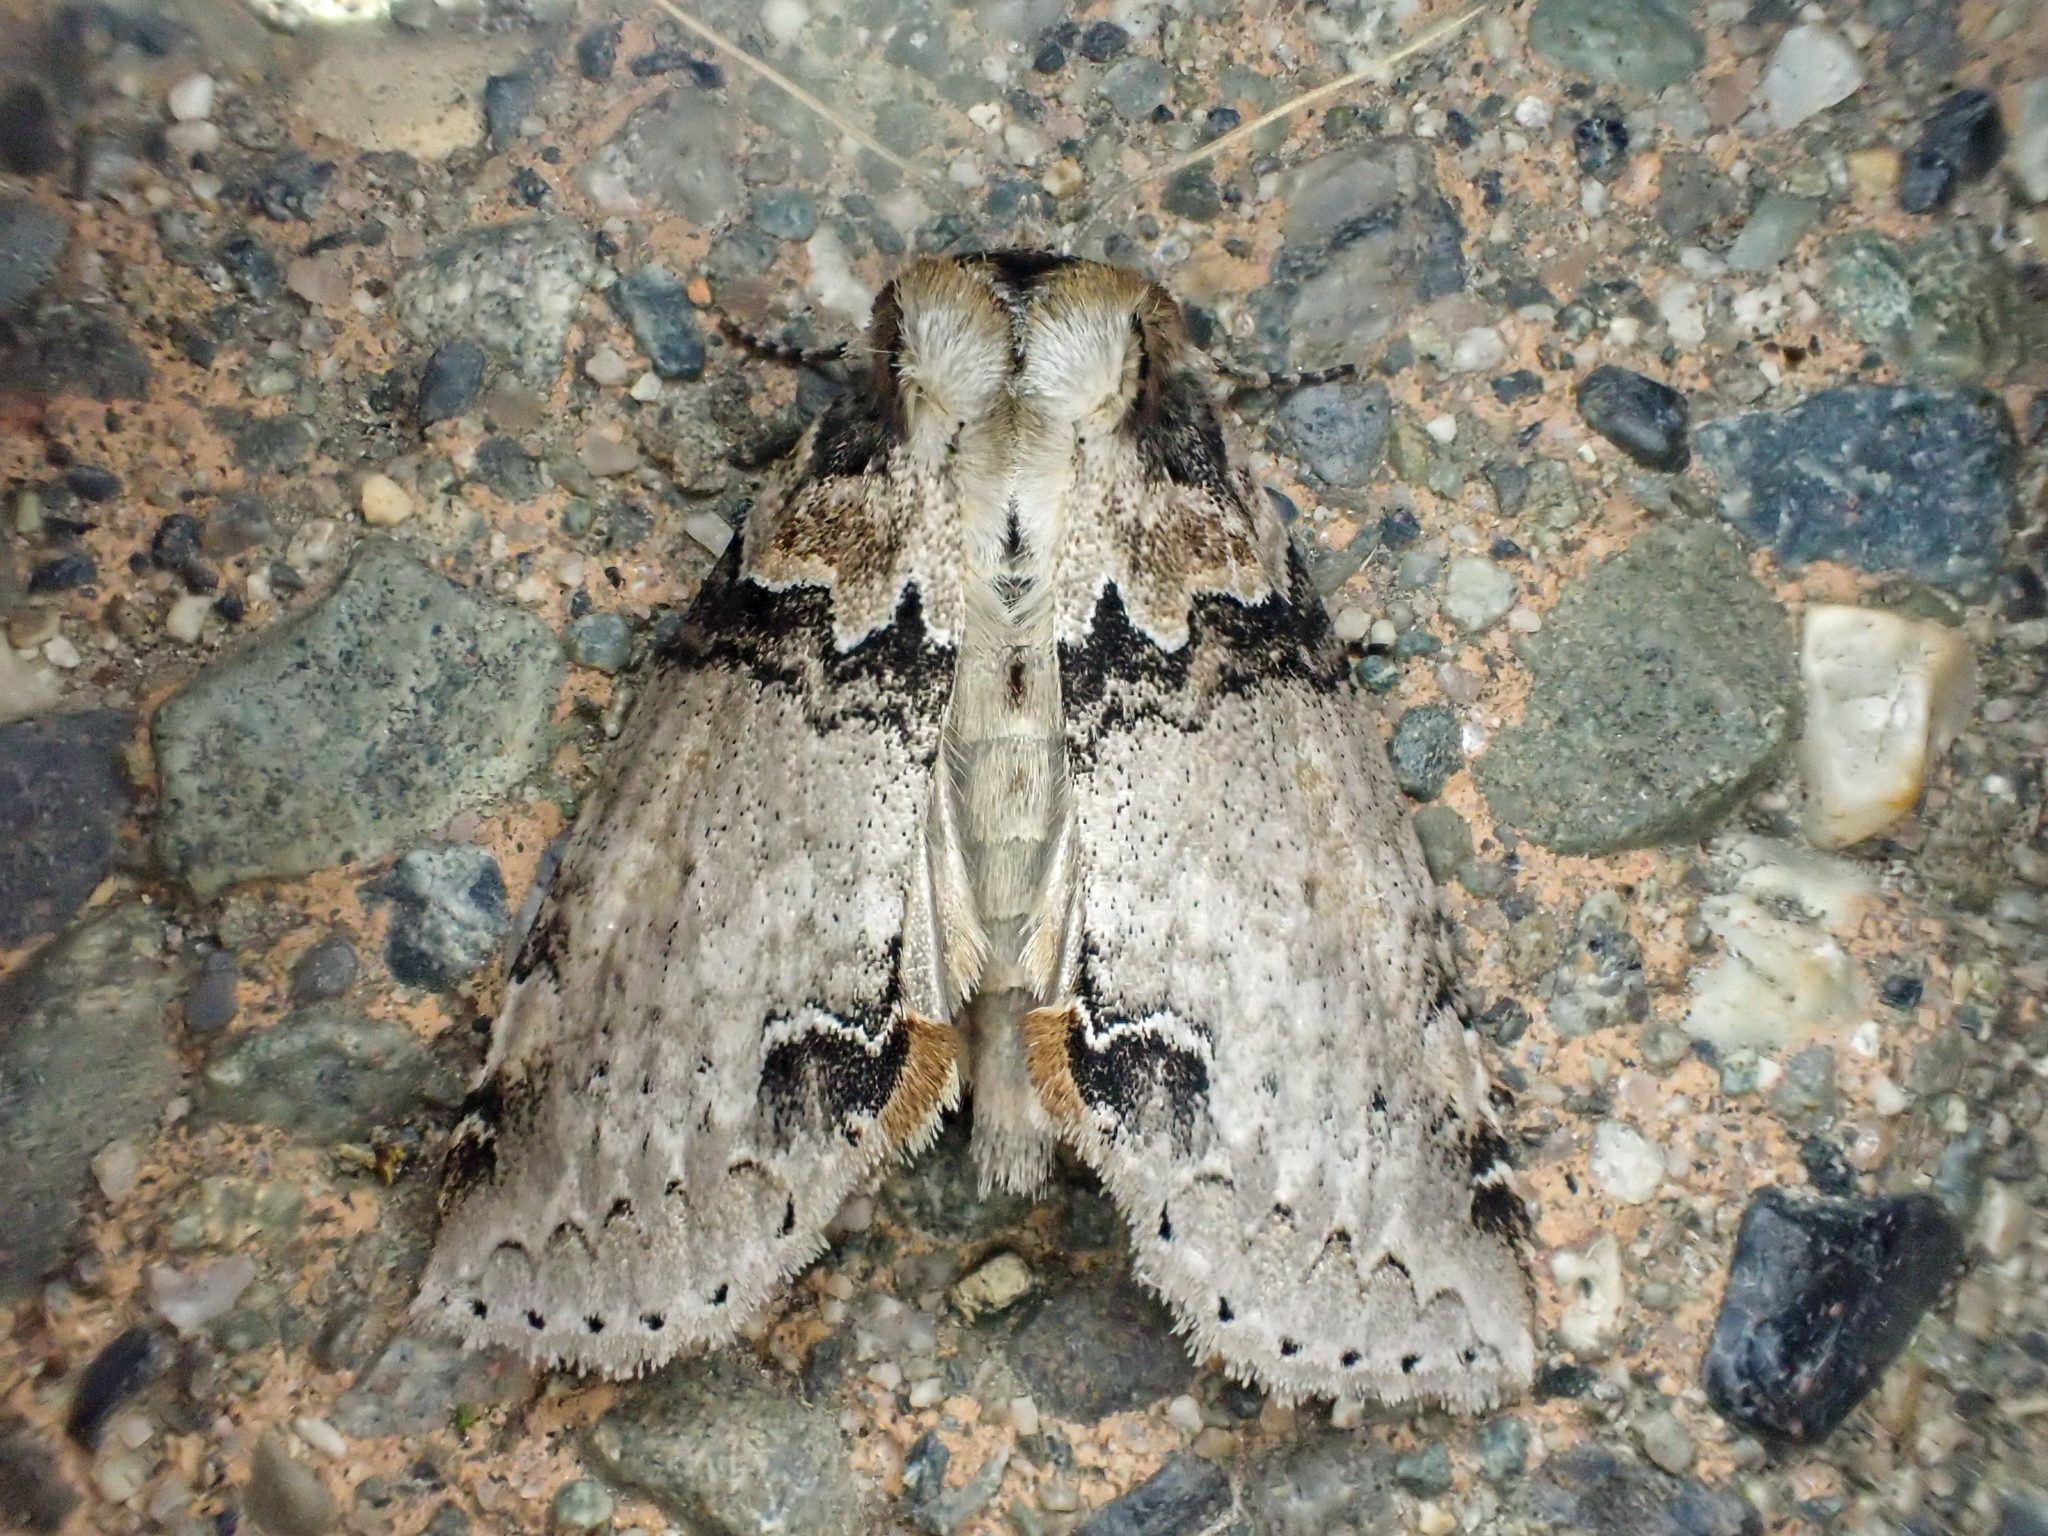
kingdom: Animalia
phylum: Arthropoda
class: Insecta
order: Lepidoptera
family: Drepanidae
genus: Pseudothyatira
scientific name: Pseudothyatira cymatophoroides
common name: Tufted thyatirid moth
